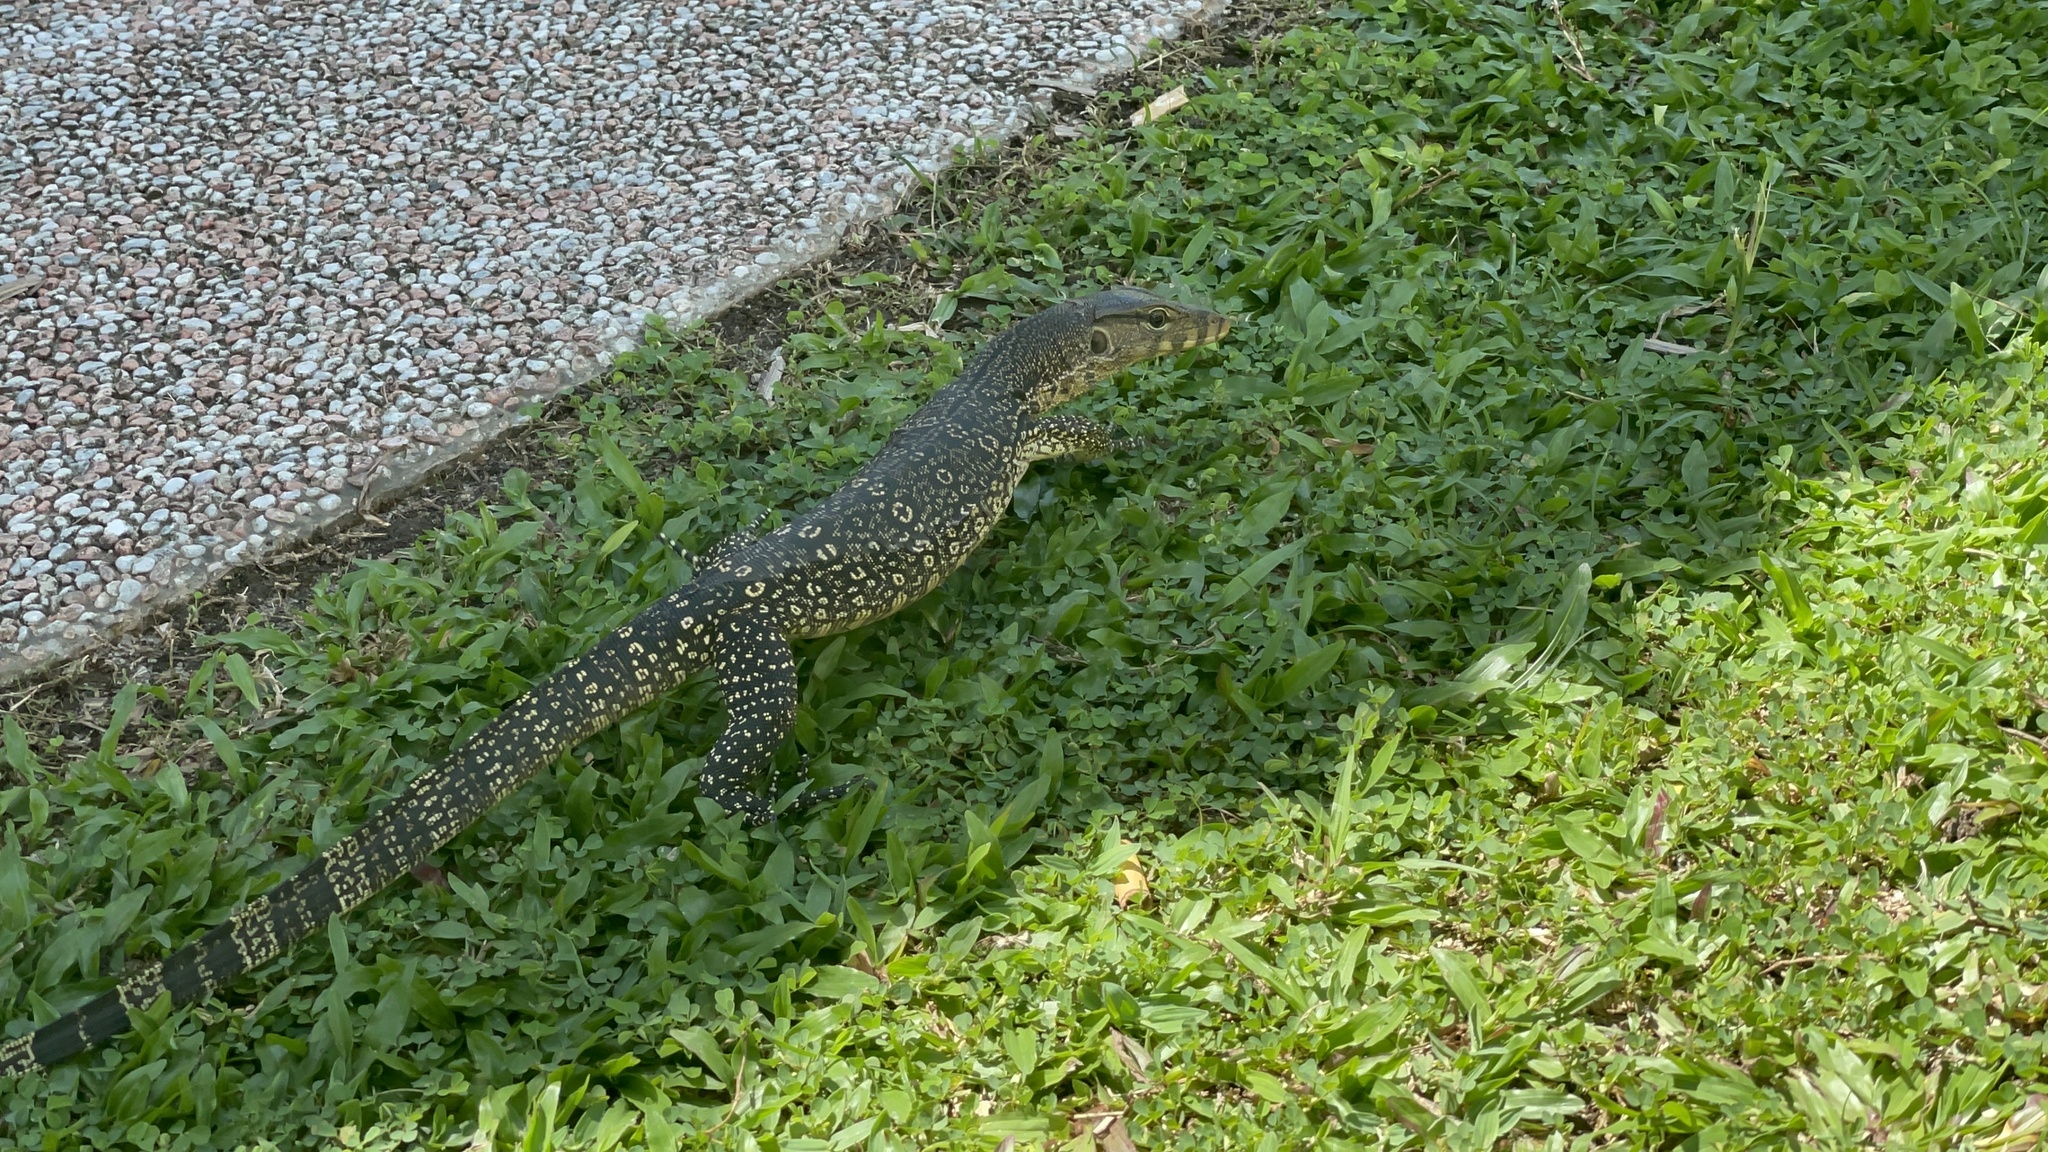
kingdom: Animalia
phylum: Chordata
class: Squamata
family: Varanidae
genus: Varanus
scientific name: Varanus salvator
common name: Common water monitor
